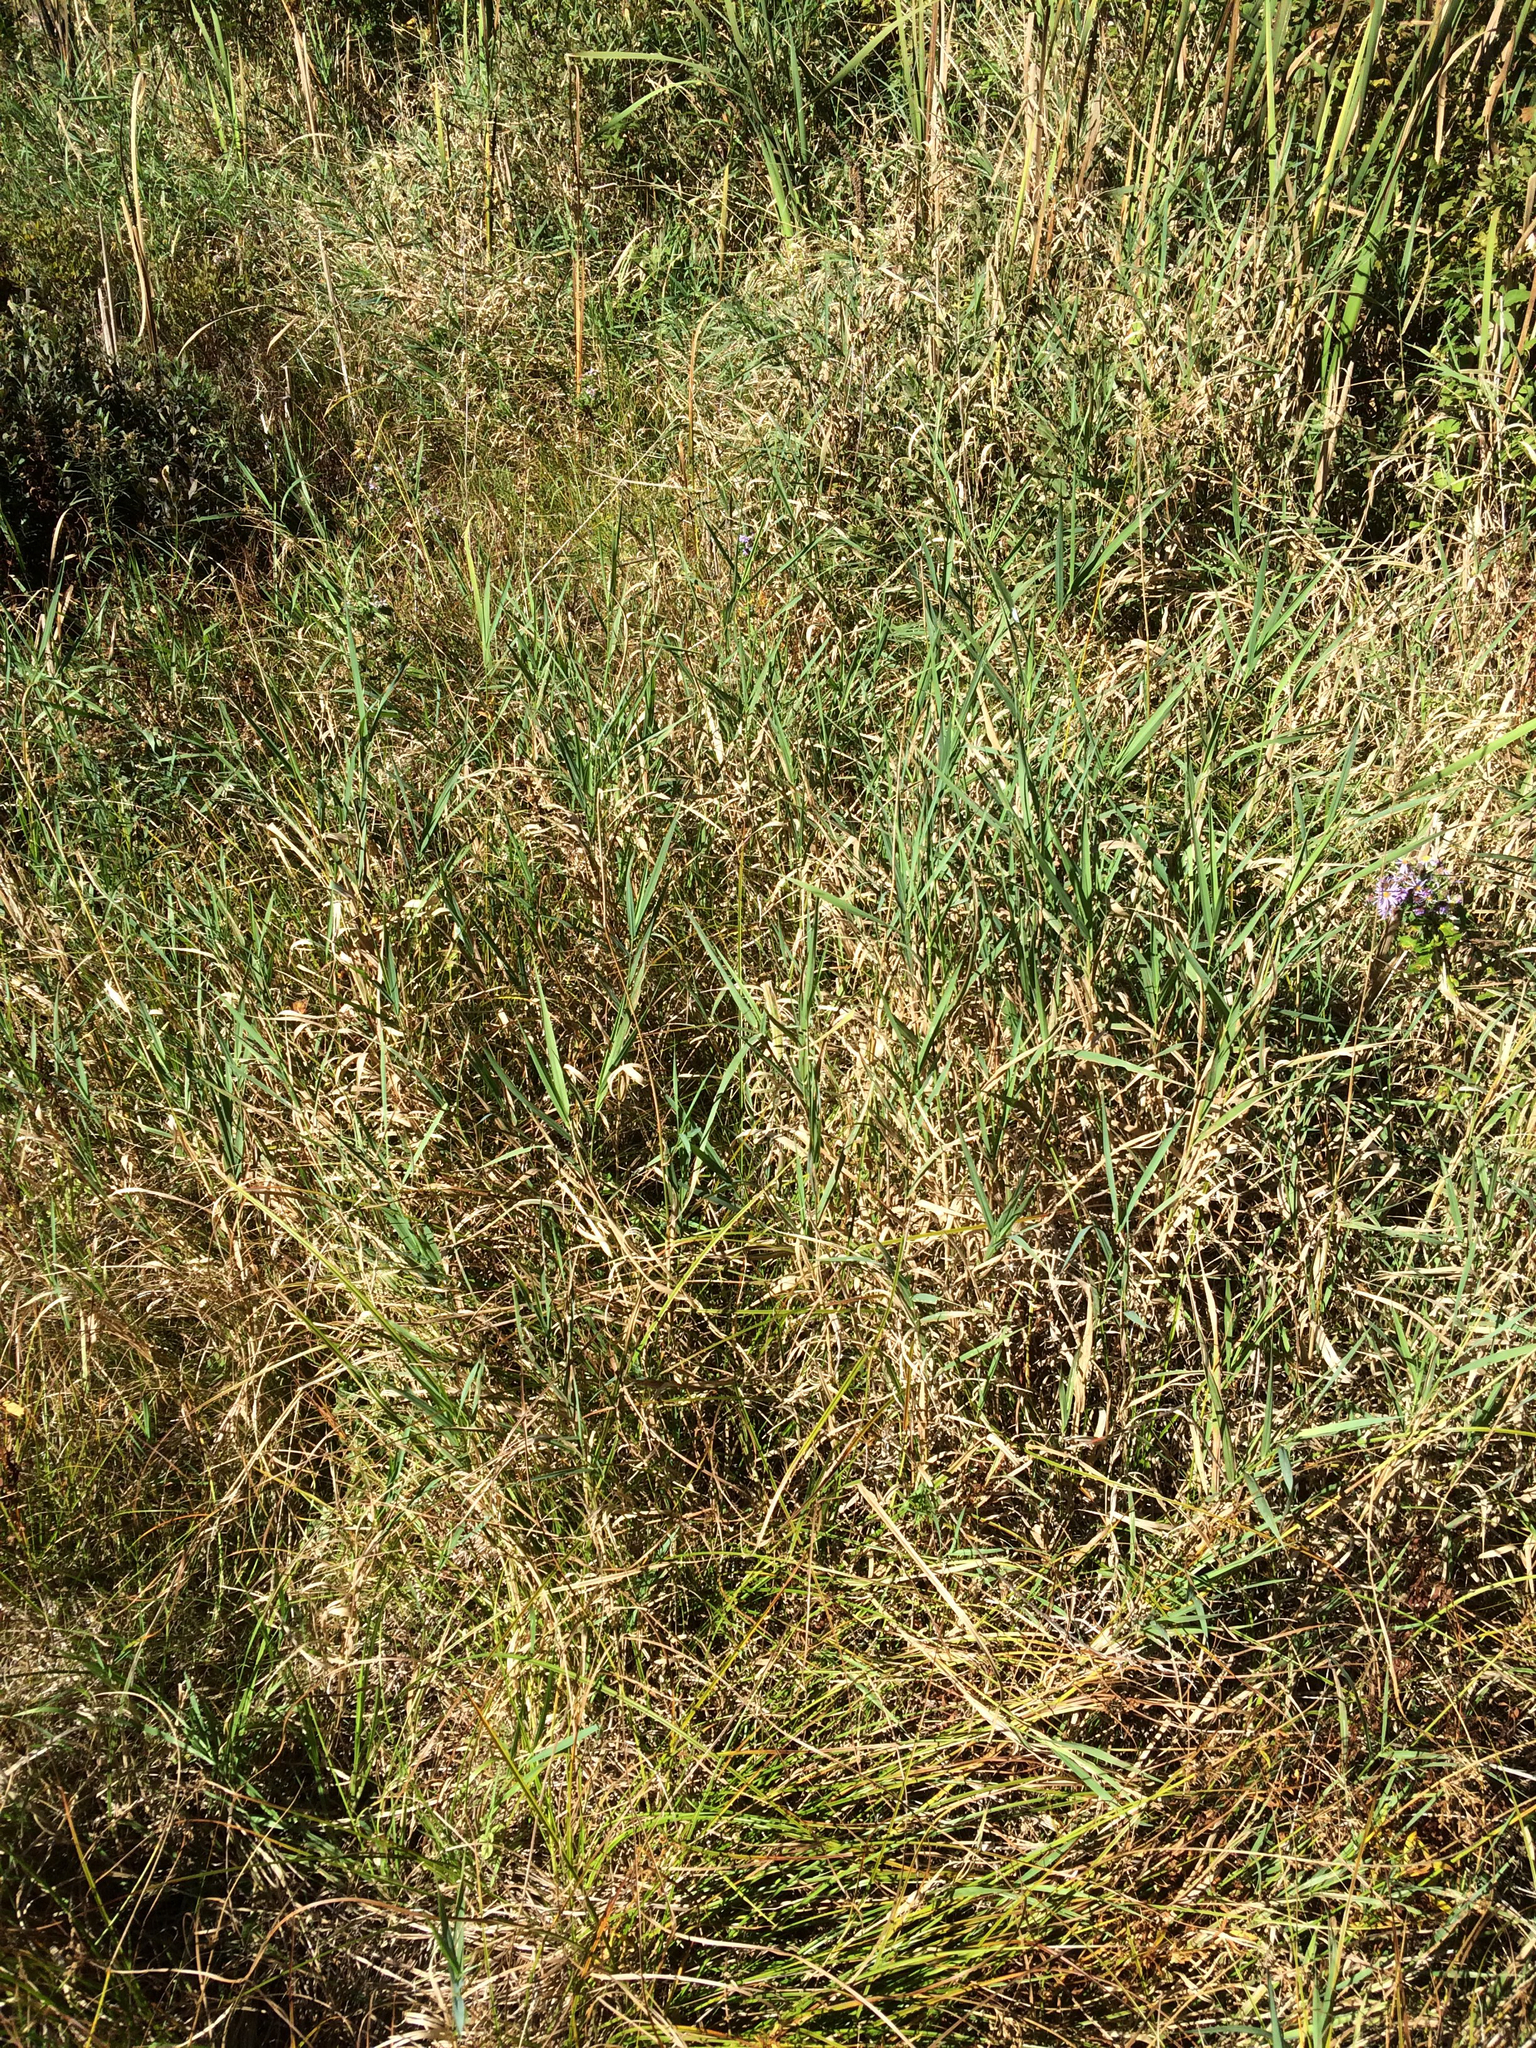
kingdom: Plantae
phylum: Tracheophyta
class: Liliopsida
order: Poales
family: Poaceae
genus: Phalaris
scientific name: Phalaris arundinacea
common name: Reed canary-grass
